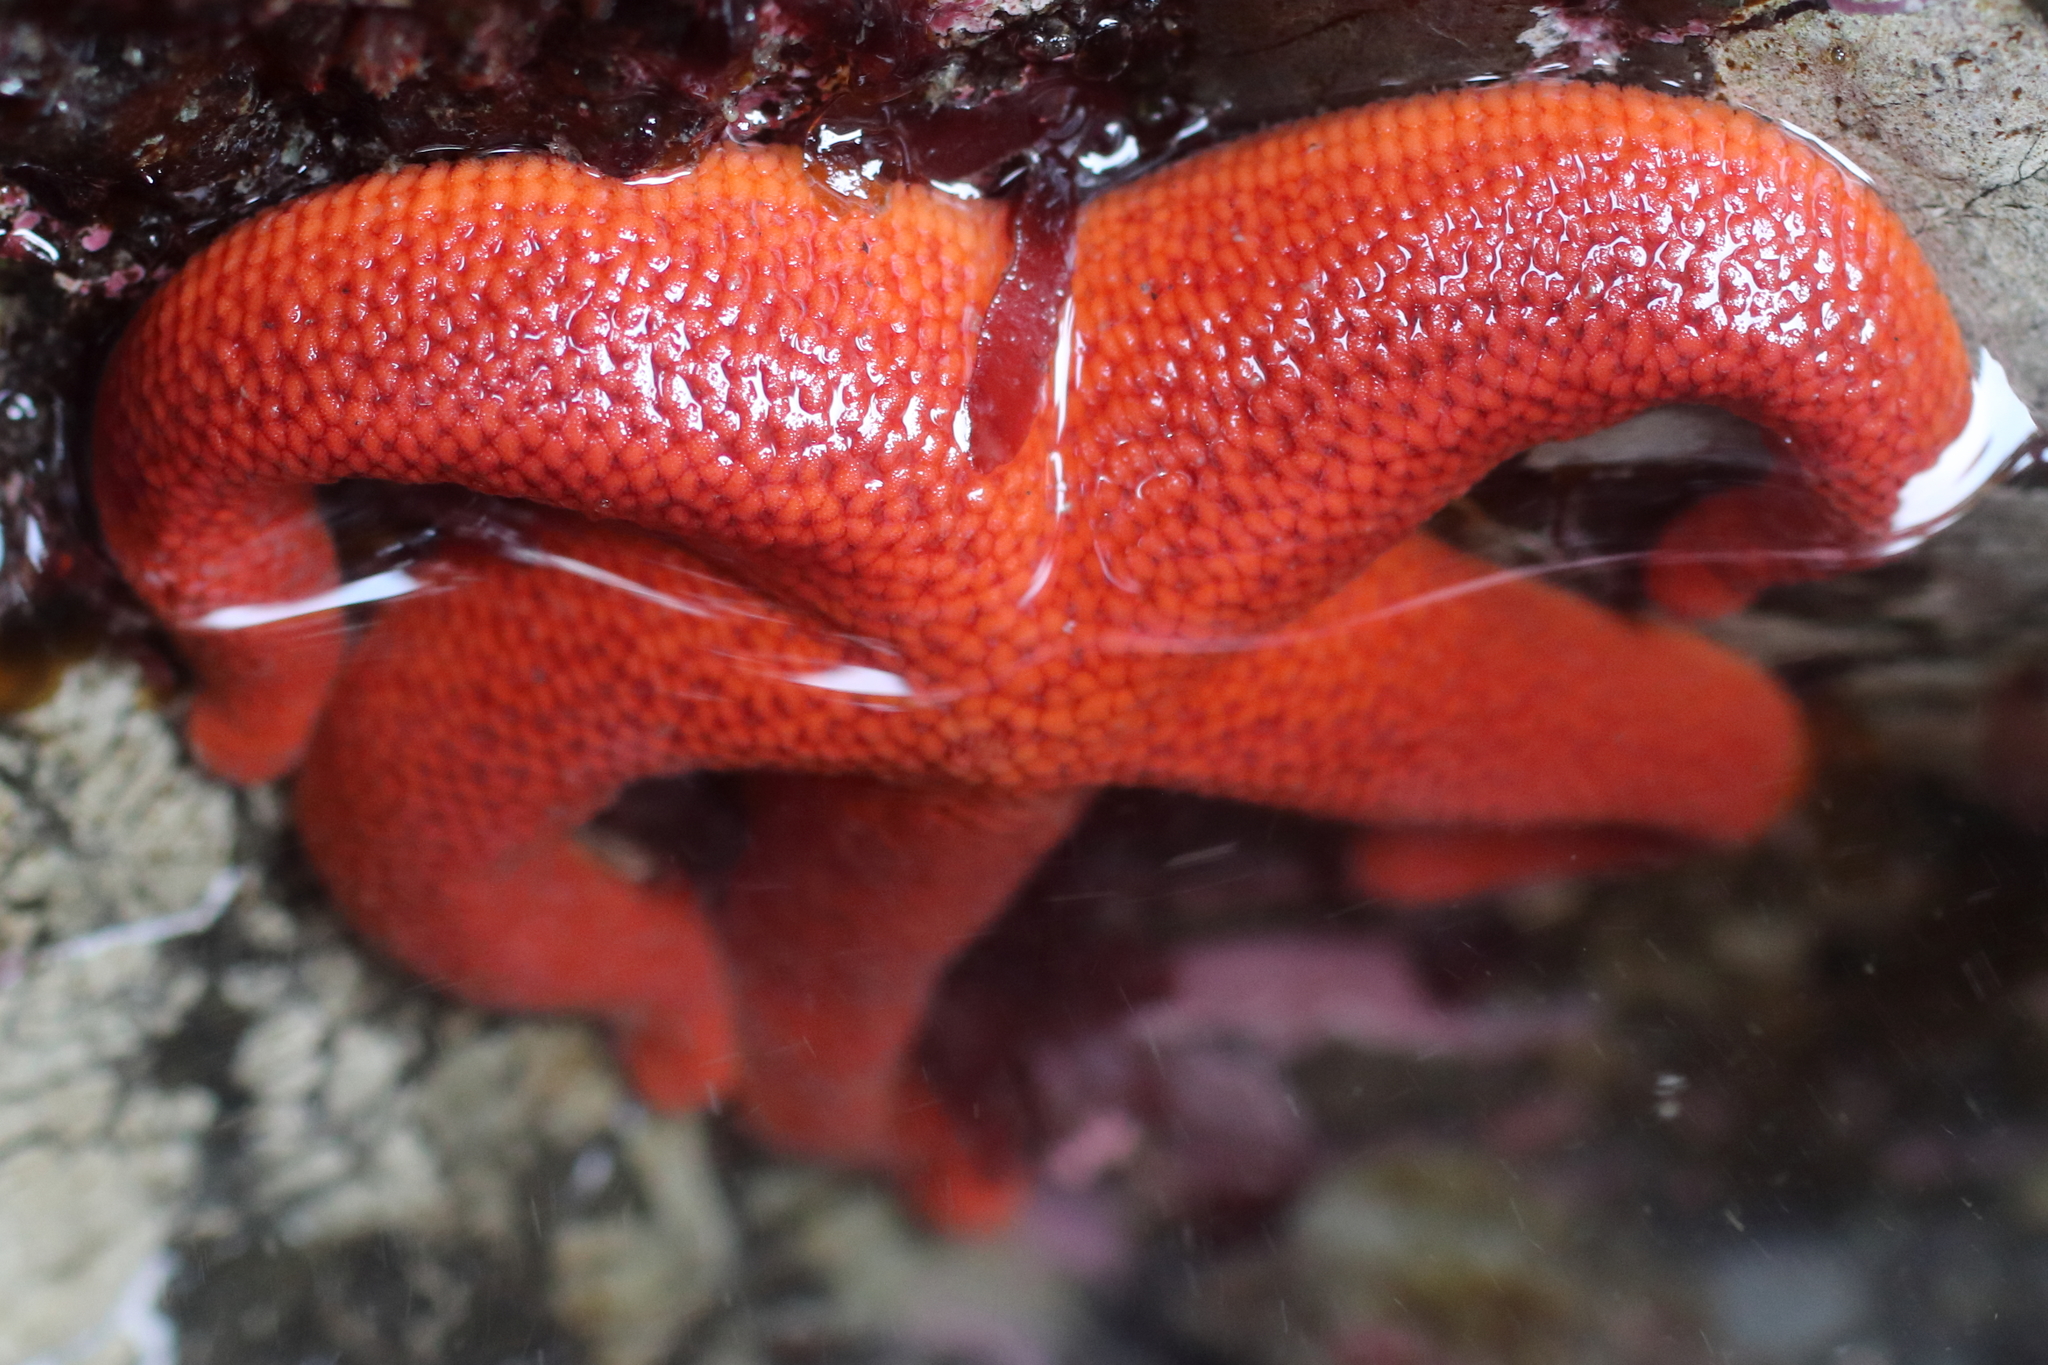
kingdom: Animalia
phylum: Echinodermata
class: Asteroidea
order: Spinulosida
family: Echinasteridae
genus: Henricia
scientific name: Henricia leviuscula
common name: Pacific blood star
